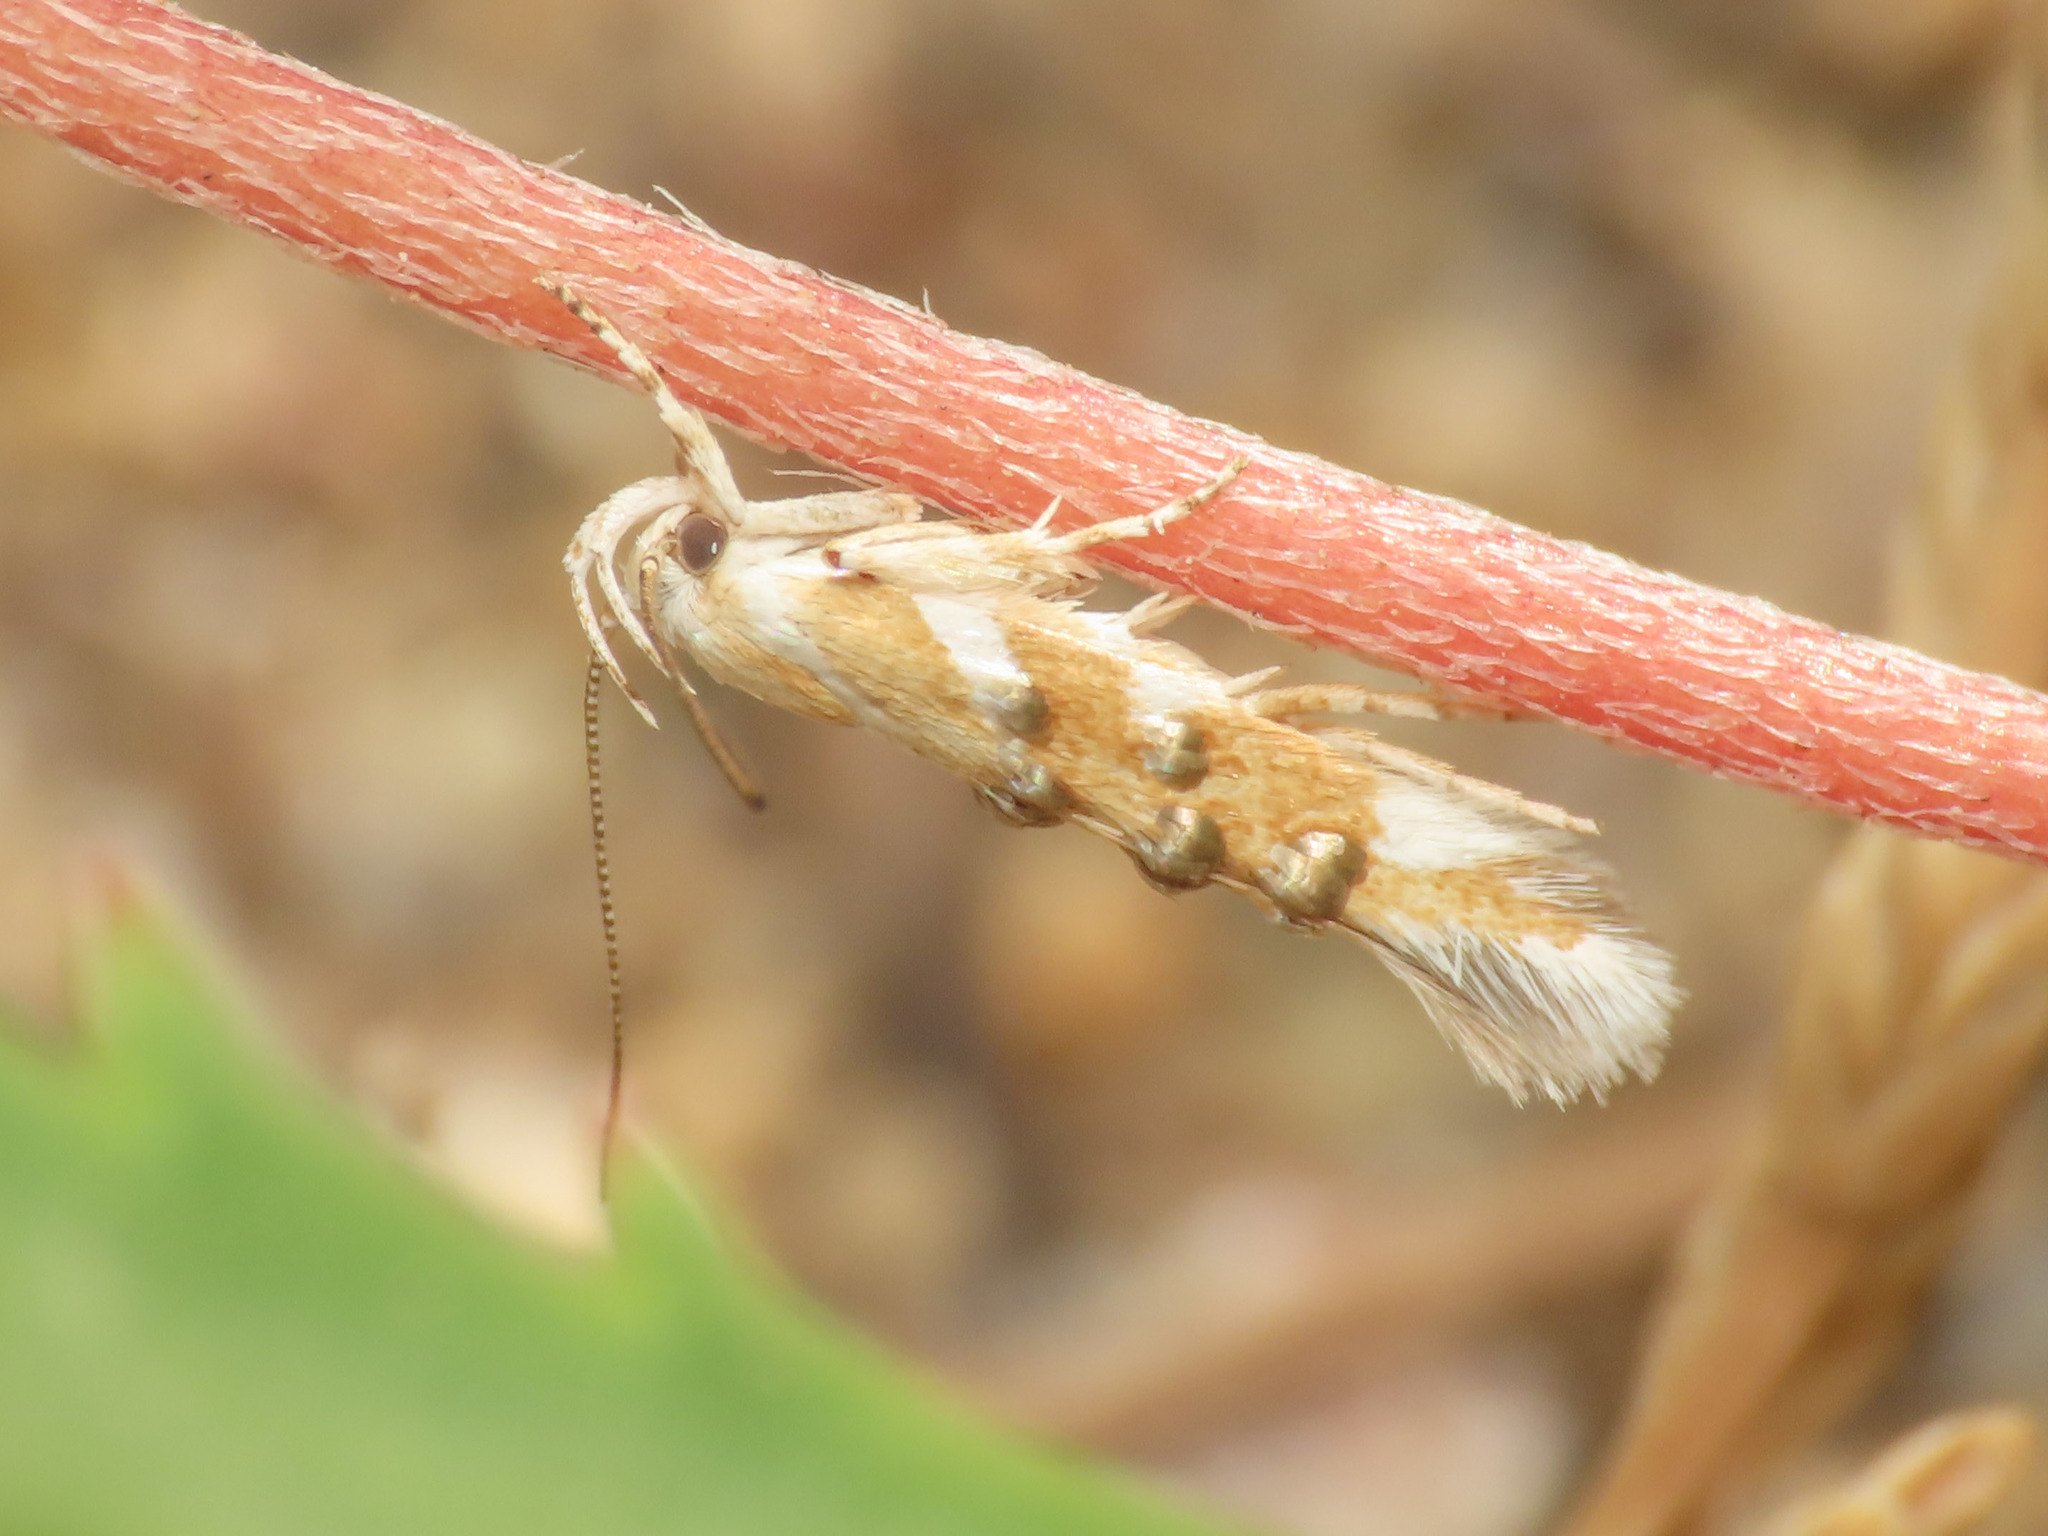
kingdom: Animalia
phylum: Arthropoda
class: Insecta
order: Lepidoptera
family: Cosmopterigidae
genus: Stagmatophora
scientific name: Stagmatophora dohrnii
